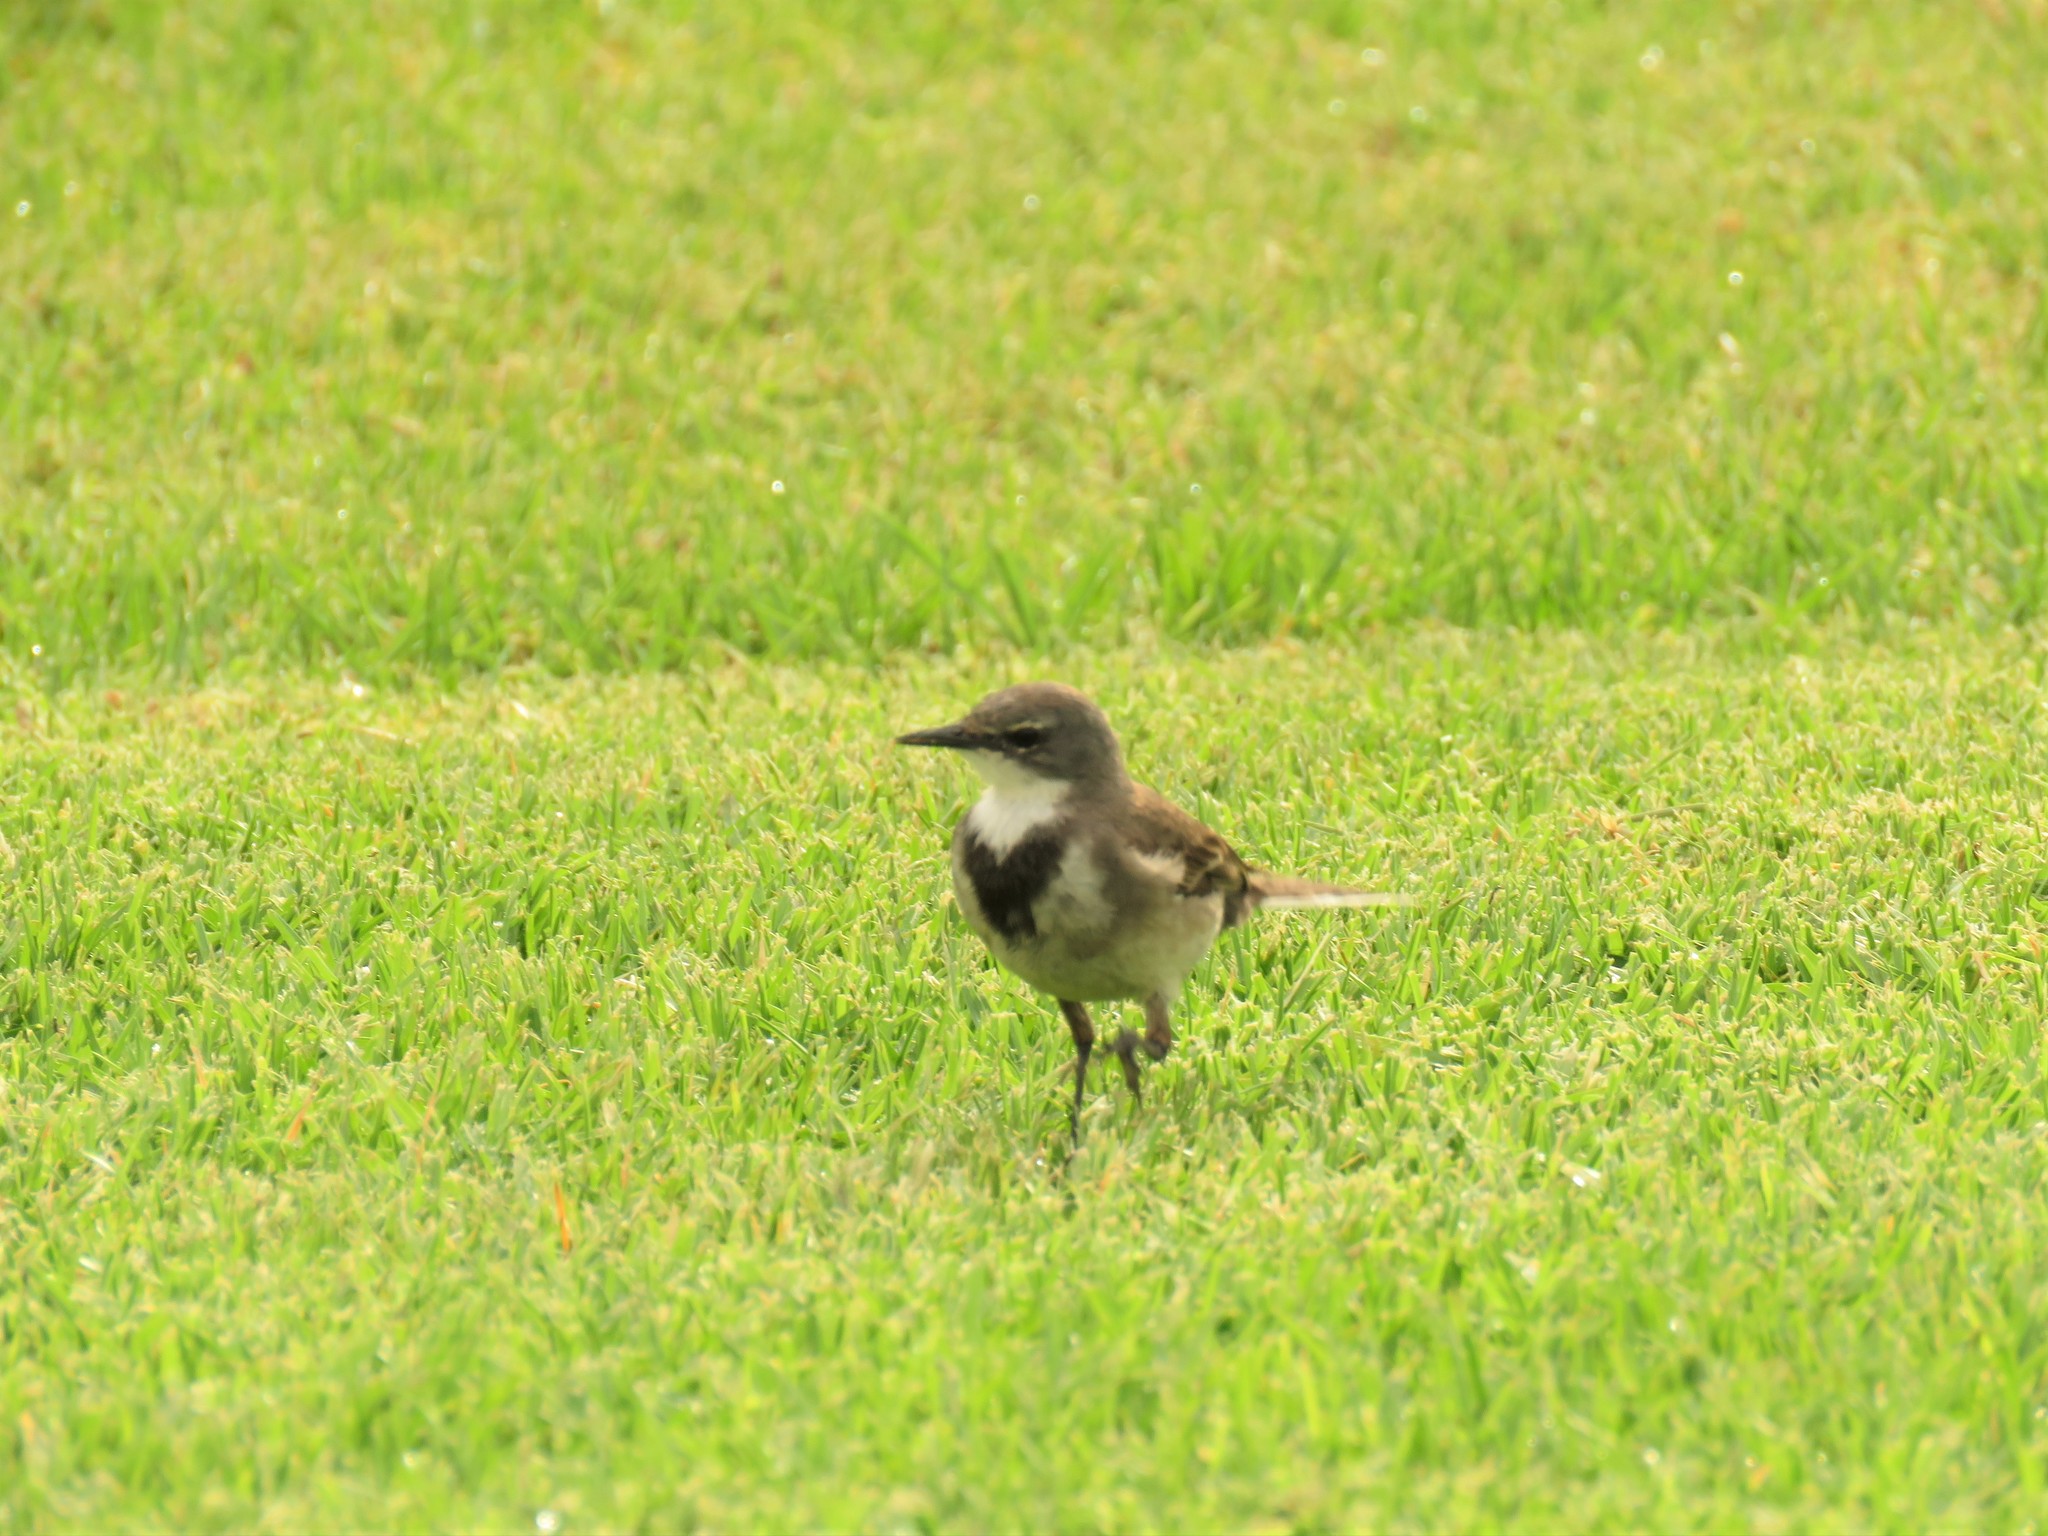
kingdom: Animalia
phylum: Chordata
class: Aves
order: Passeriformes
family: Motacillidae
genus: Motacilla
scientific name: Motacilla capensis
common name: Cape wagtail
